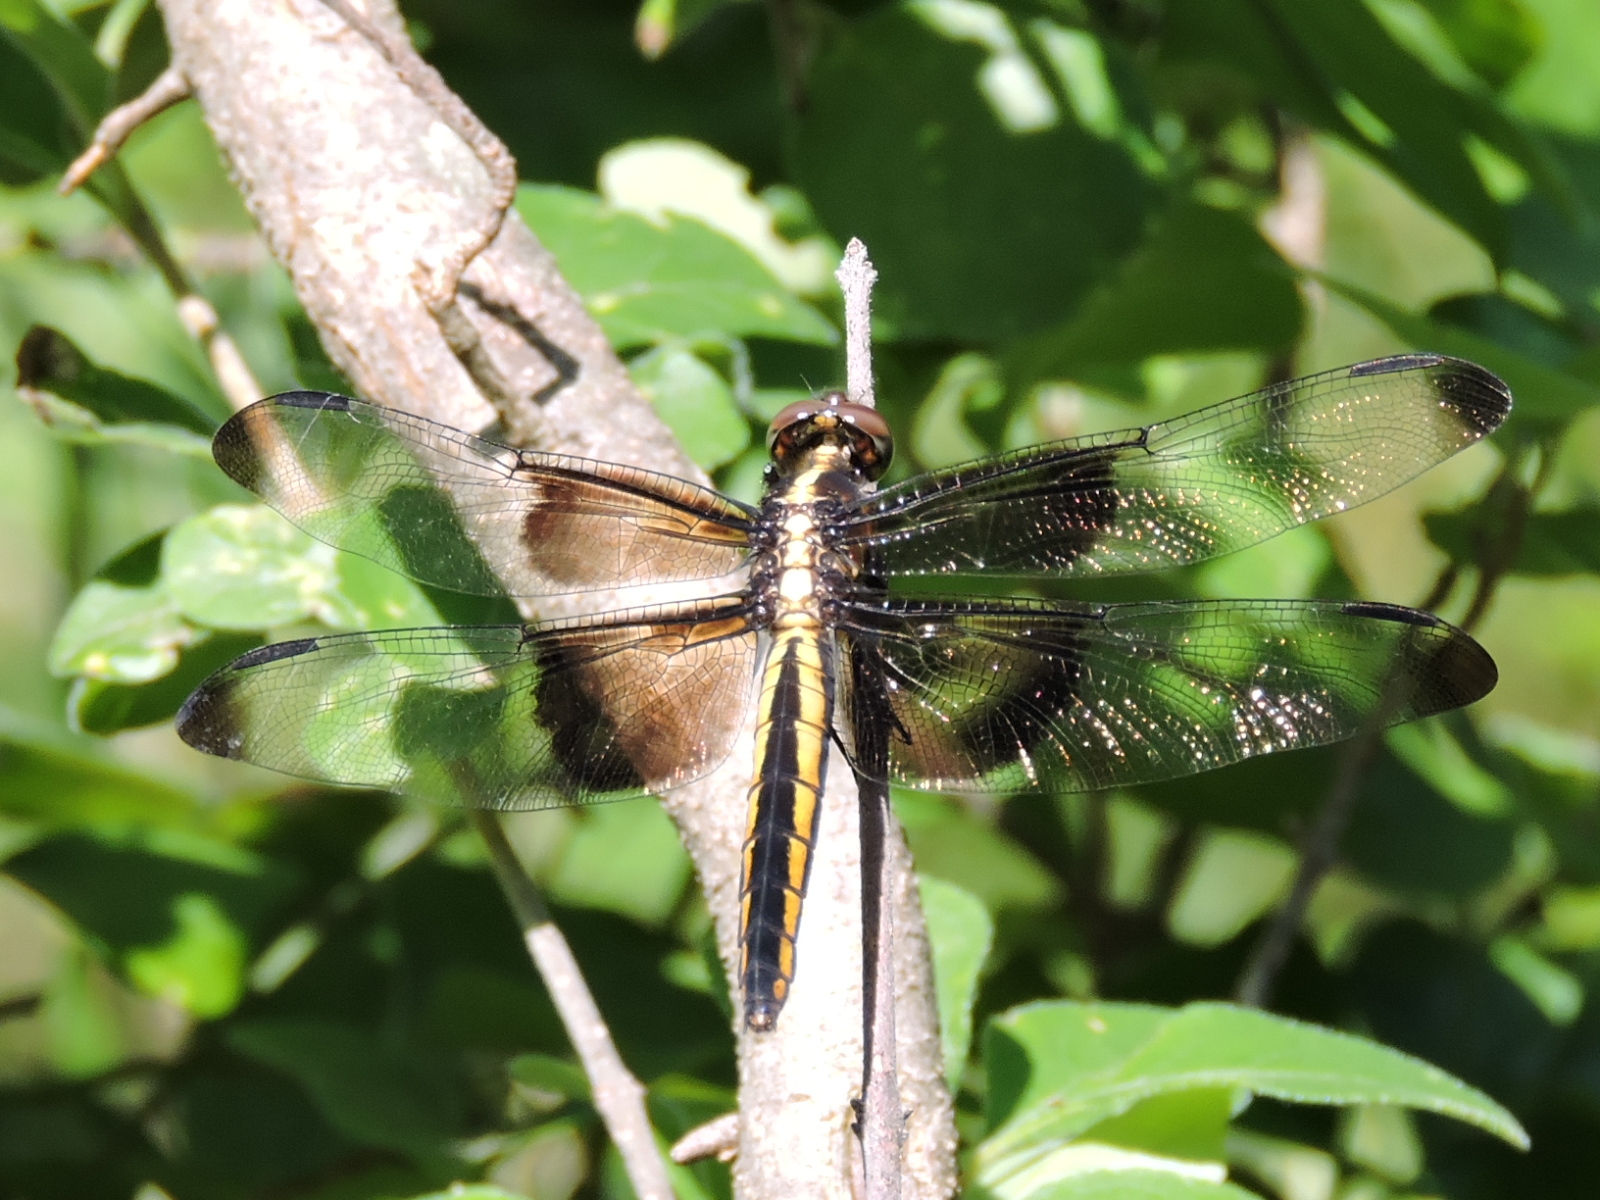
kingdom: Animalia
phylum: Arthropoda
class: Insecta
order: Odonata
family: Libellulidae
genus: Libellula
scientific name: Libellula luctuosa
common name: Widow skimmer
